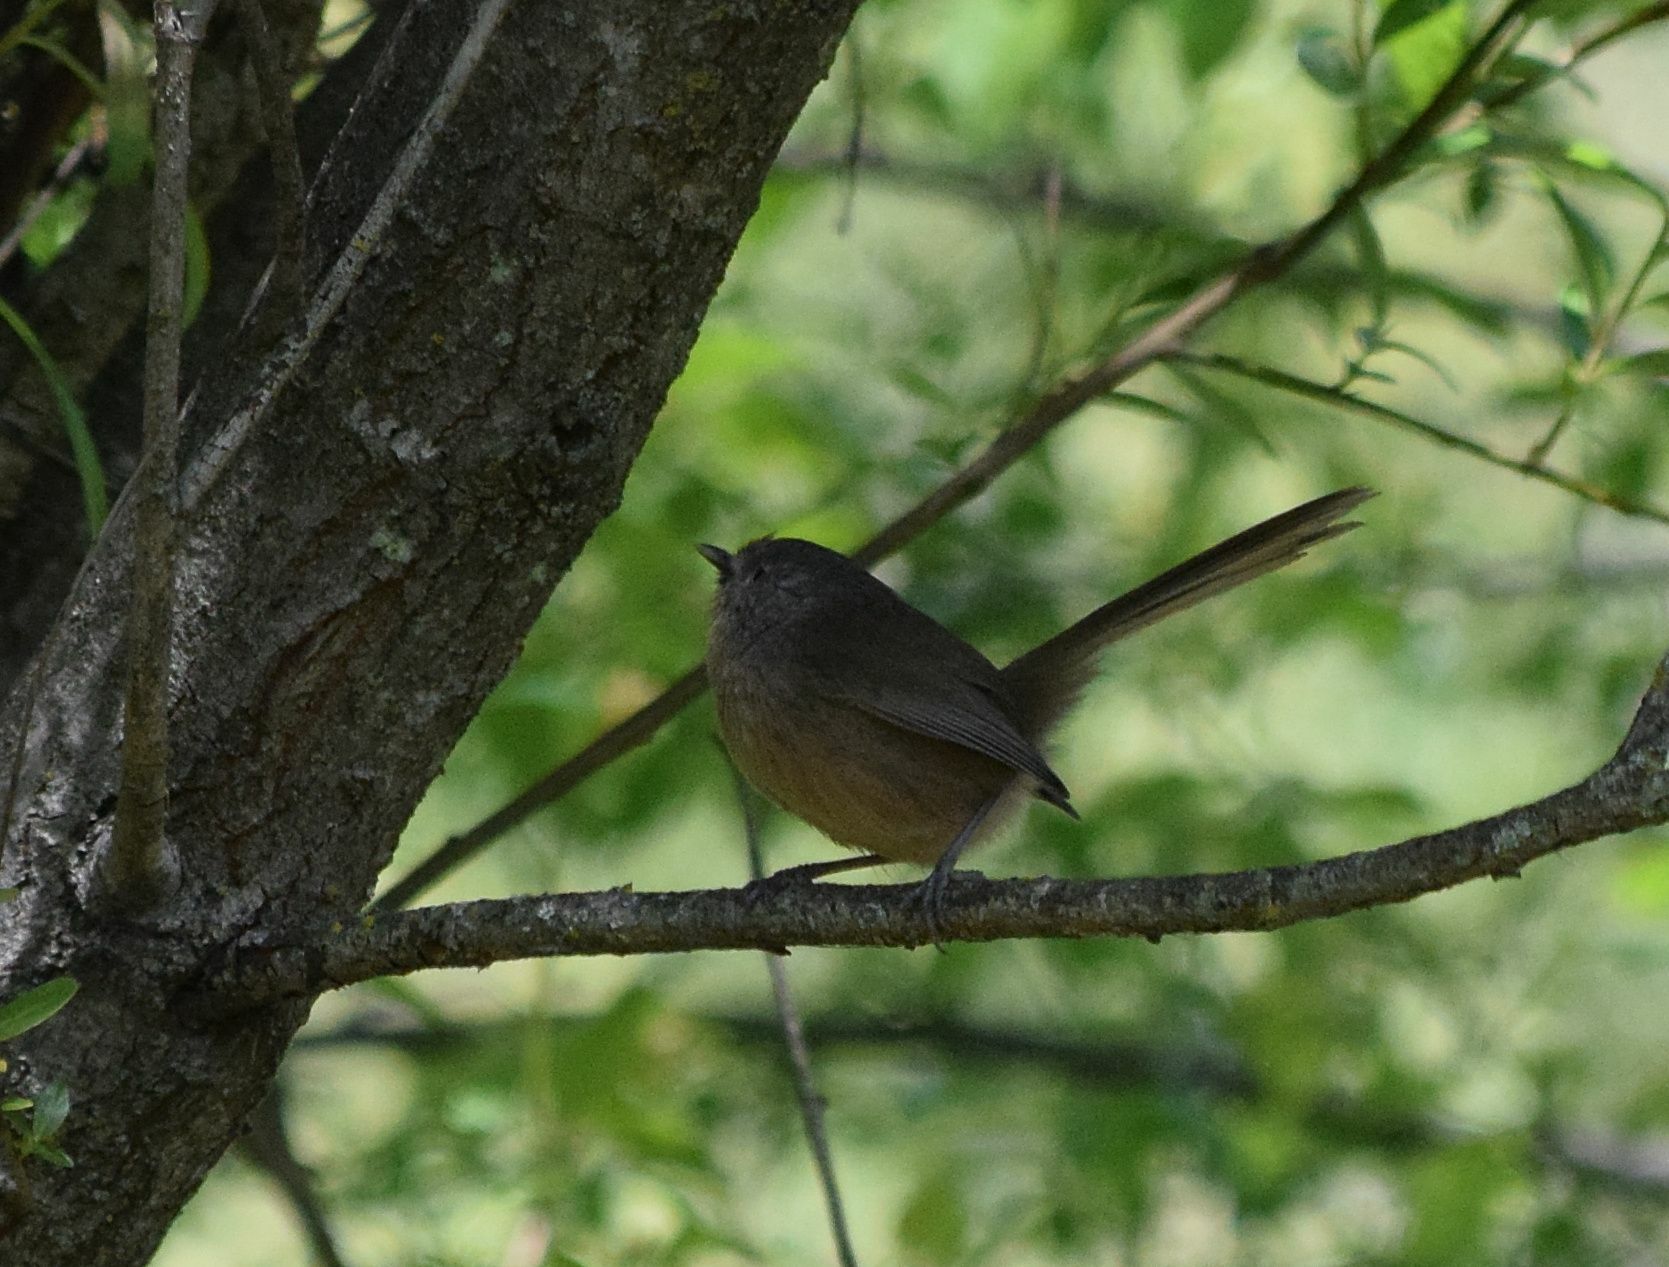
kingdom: Animalia
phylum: Chordata
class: Aves
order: Passeriformes
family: Sylviidae
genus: Chamaea
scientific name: Chamaea fasciata
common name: Wrentit
